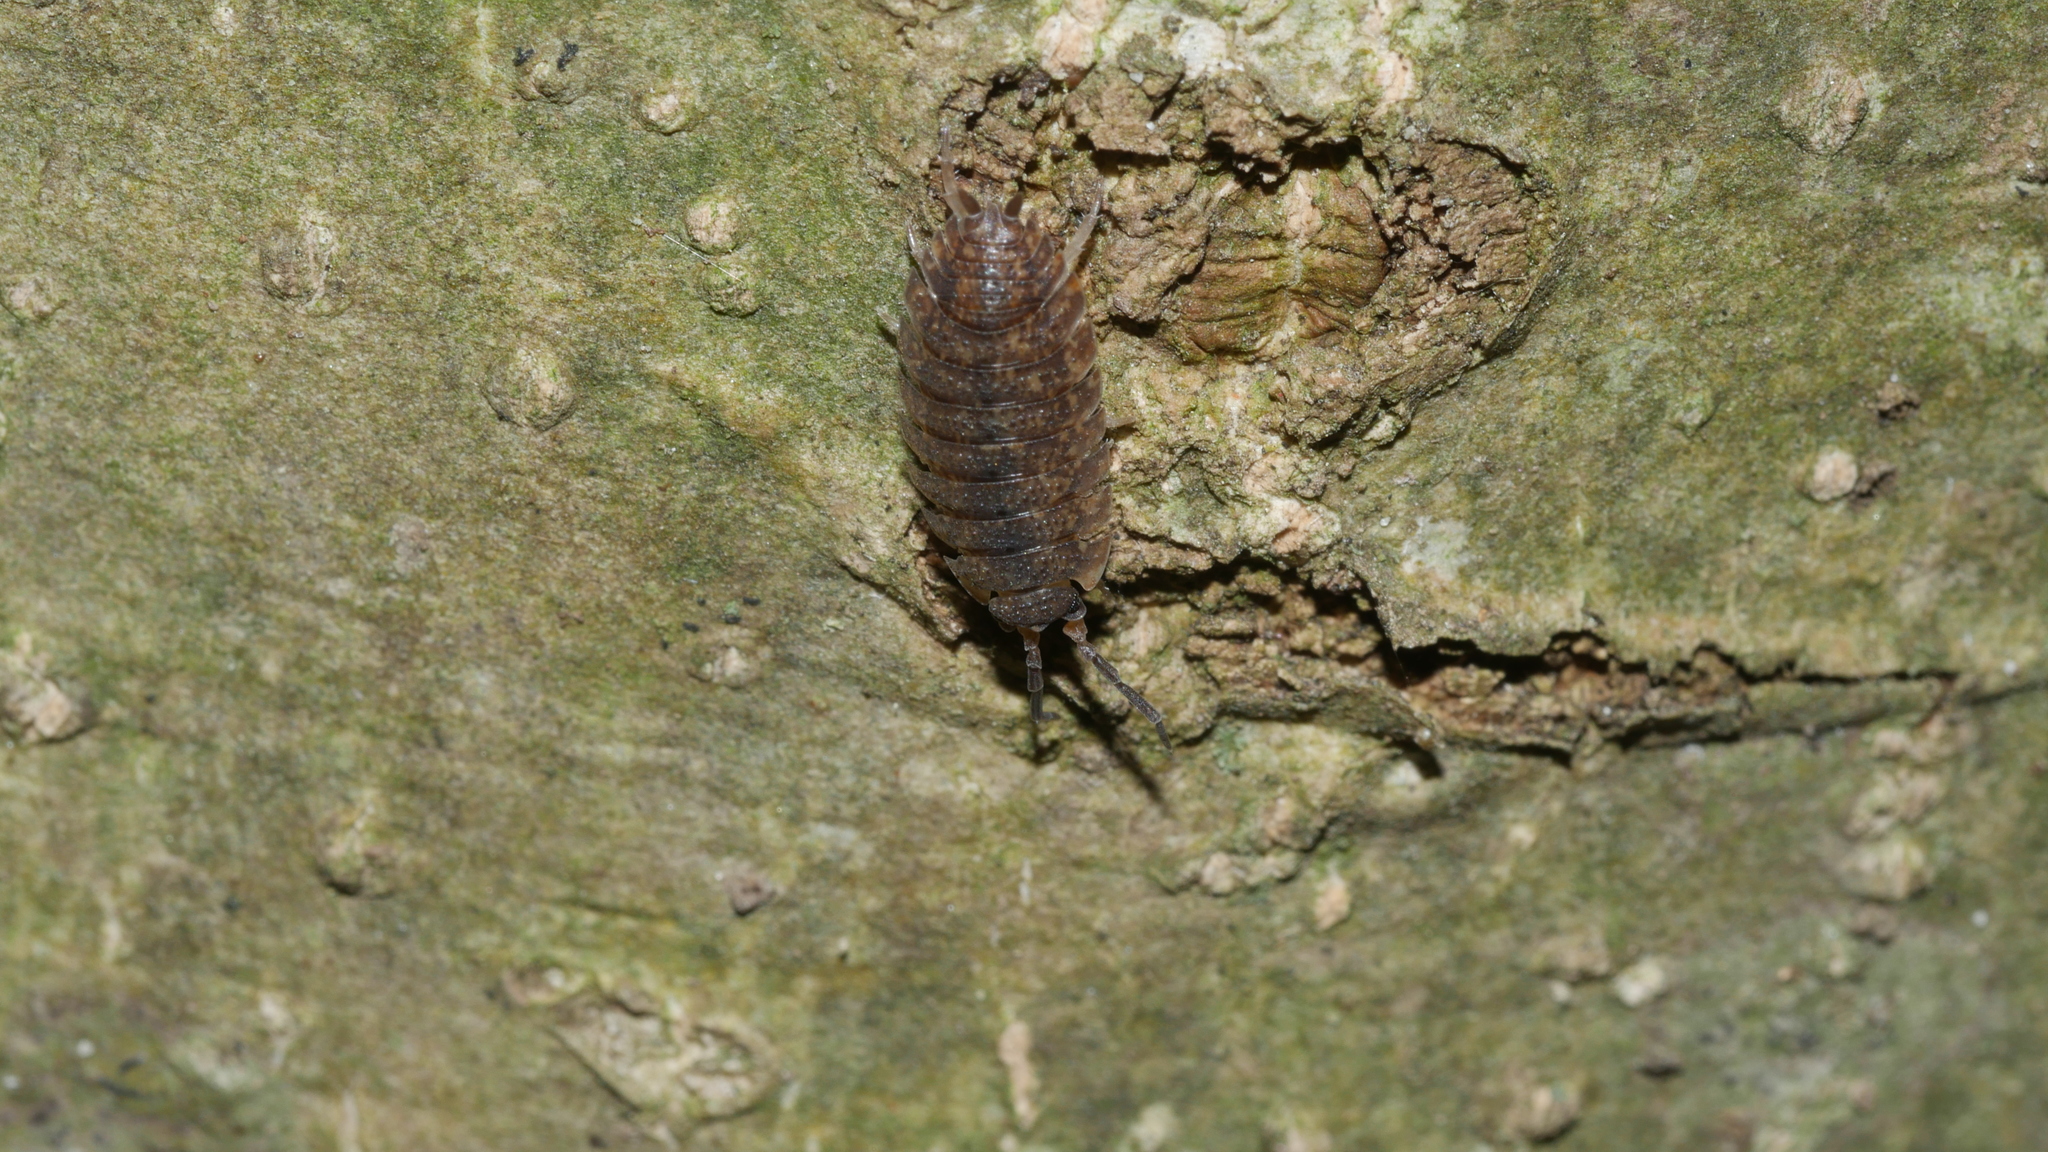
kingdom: Animalia
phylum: Arthropoda
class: Malacostraca
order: Isopoda
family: Porcellionidae
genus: Porcellio
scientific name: Porcellio scaber
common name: Common rough woodlouse
